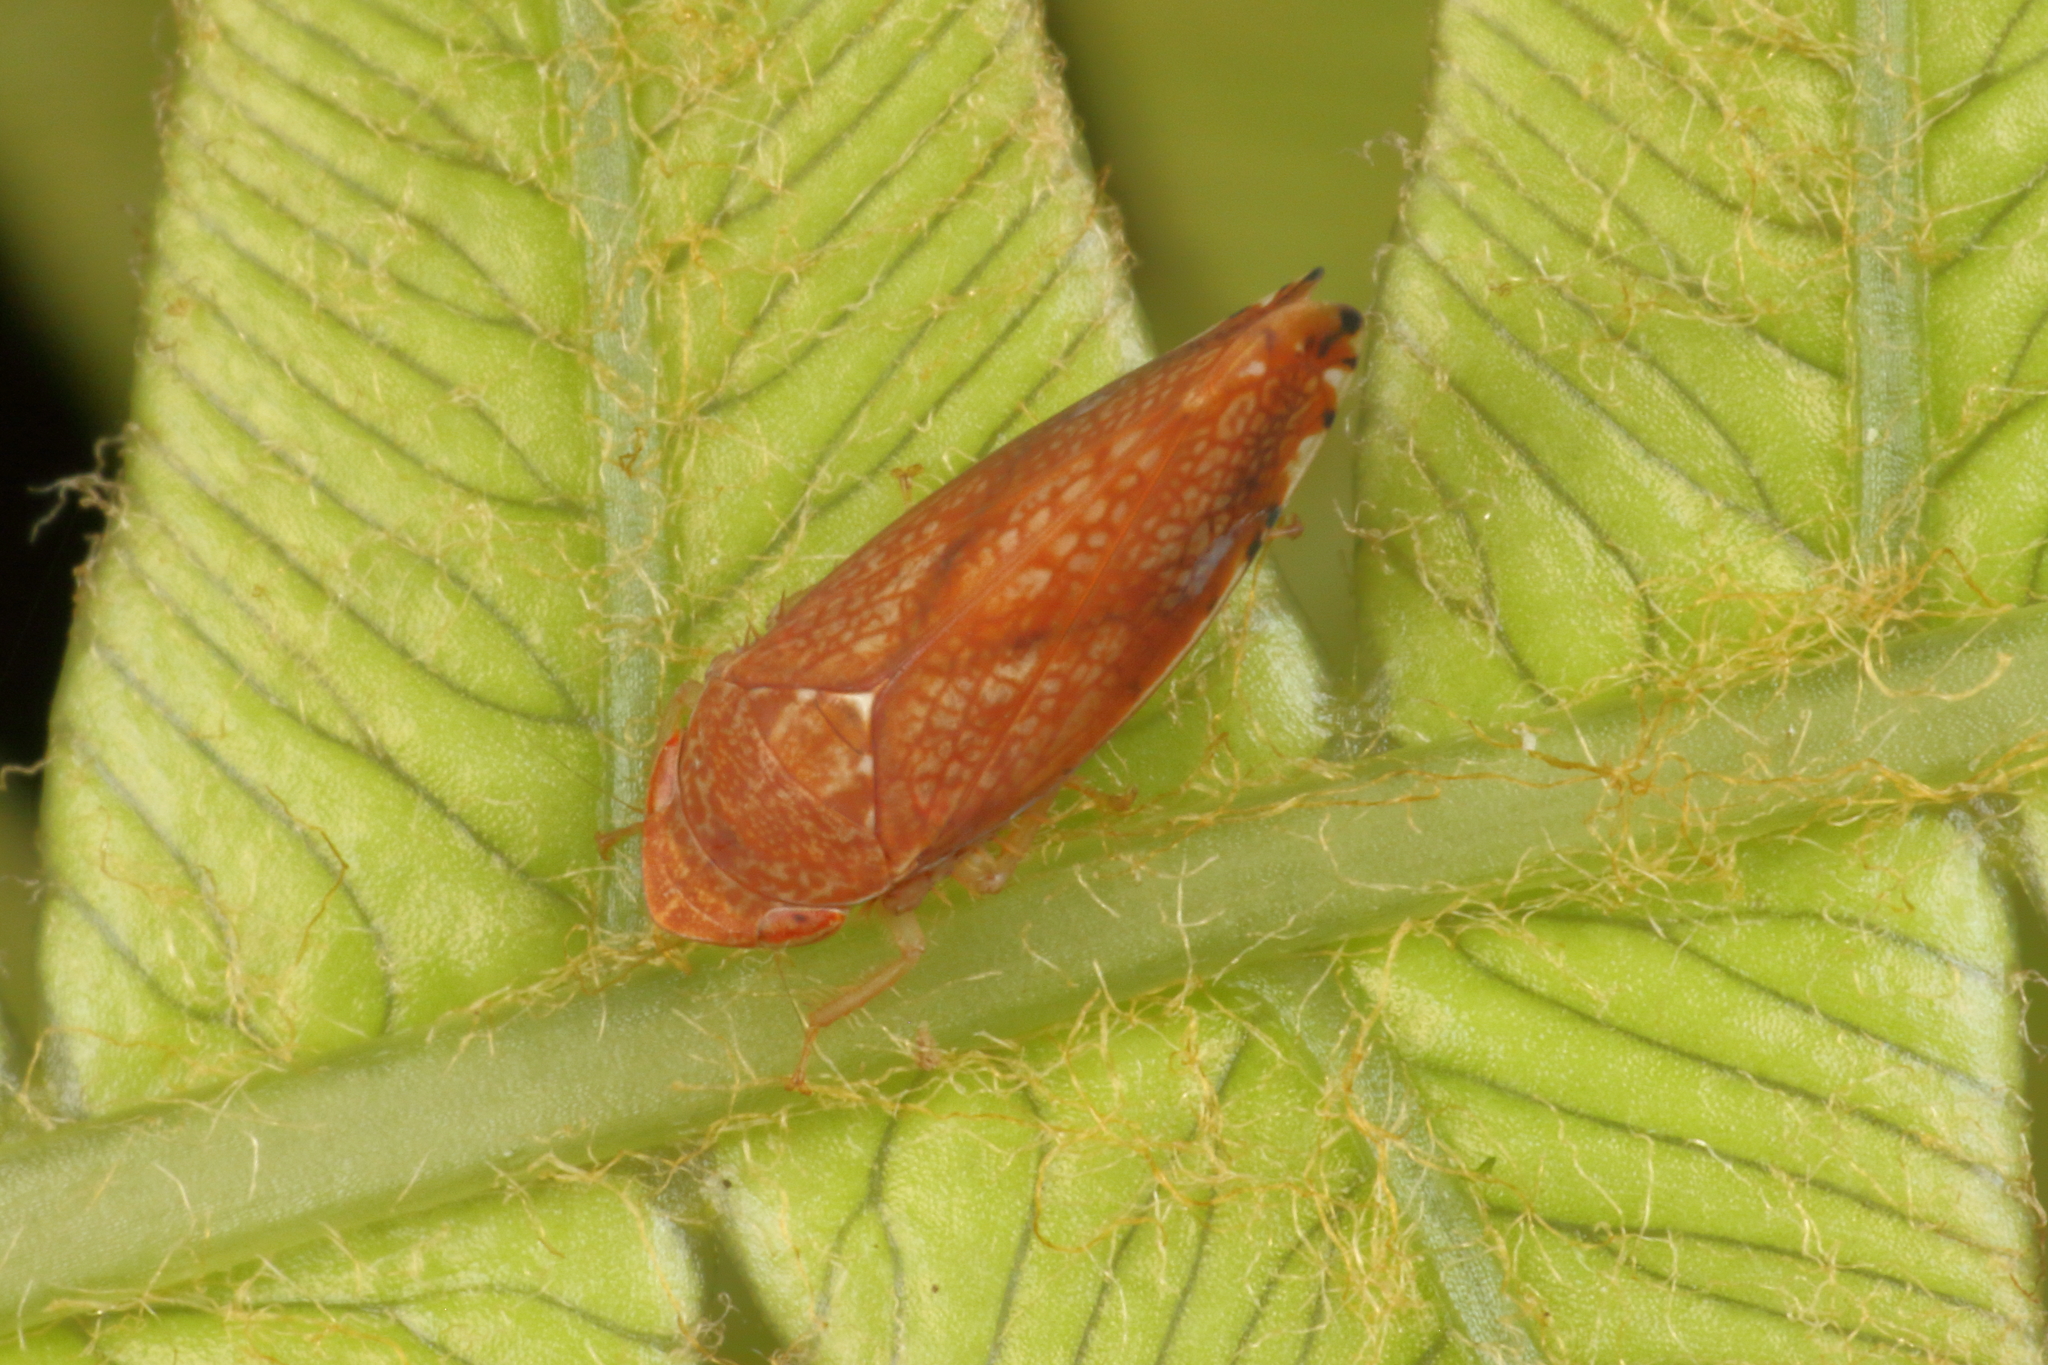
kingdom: Animalia
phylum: Arthropoda
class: Insecta
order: Hemiptera
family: Cicadellidae
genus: Scaphetus
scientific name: Scaphetus brunneus
